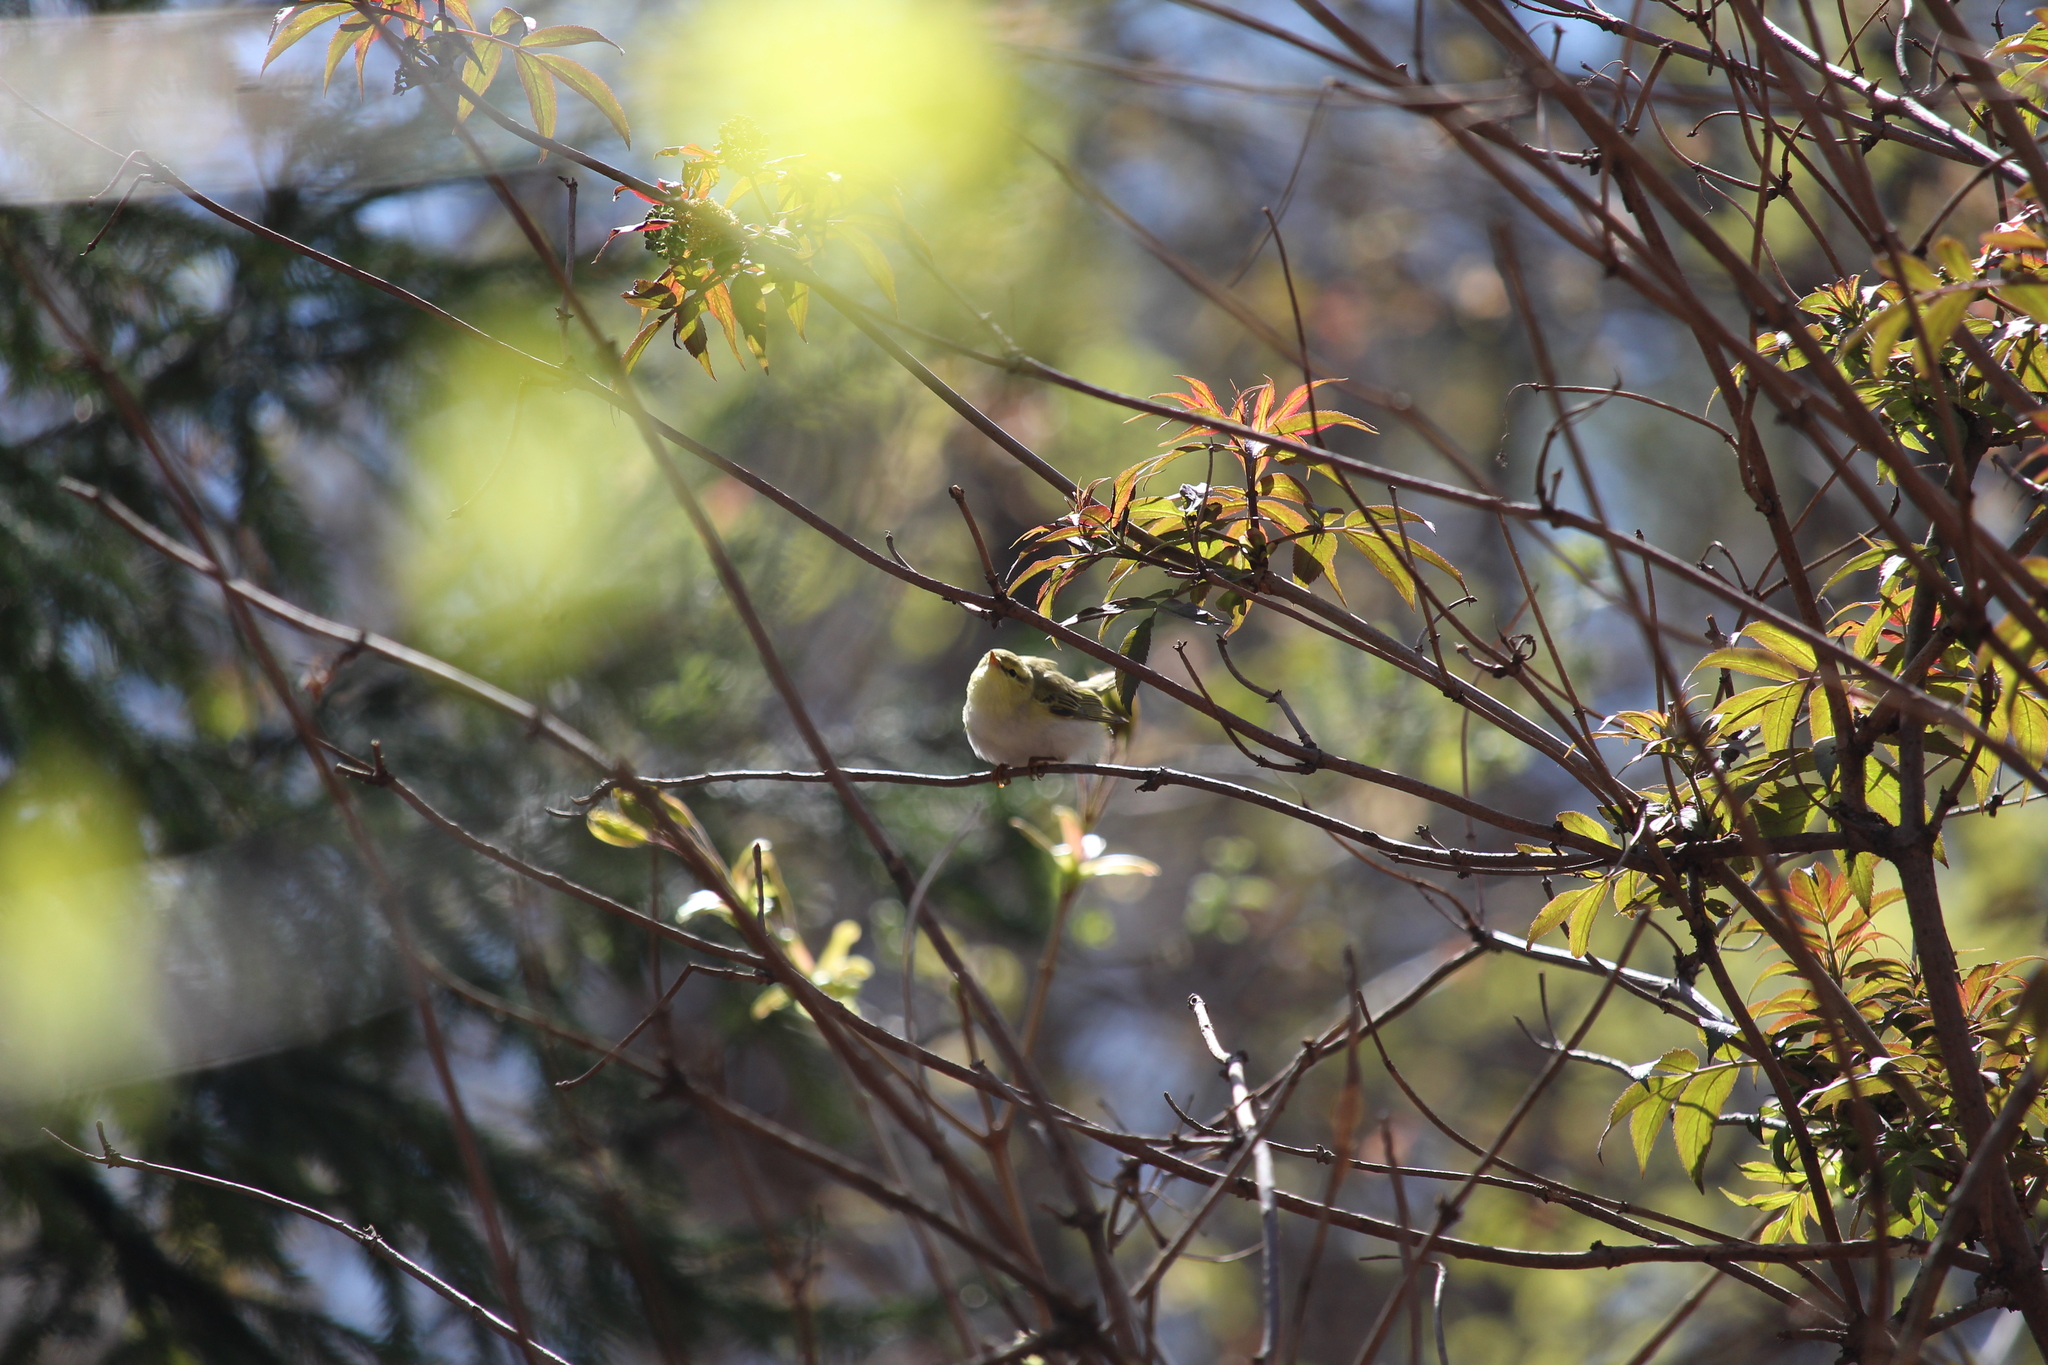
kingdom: Animalia
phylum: Chordata
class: Aves
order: Passeriformes
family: Phylloscopidae
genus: Phylloscopus
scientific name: Phylloscopus sibillatrix
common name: Wood warbler
